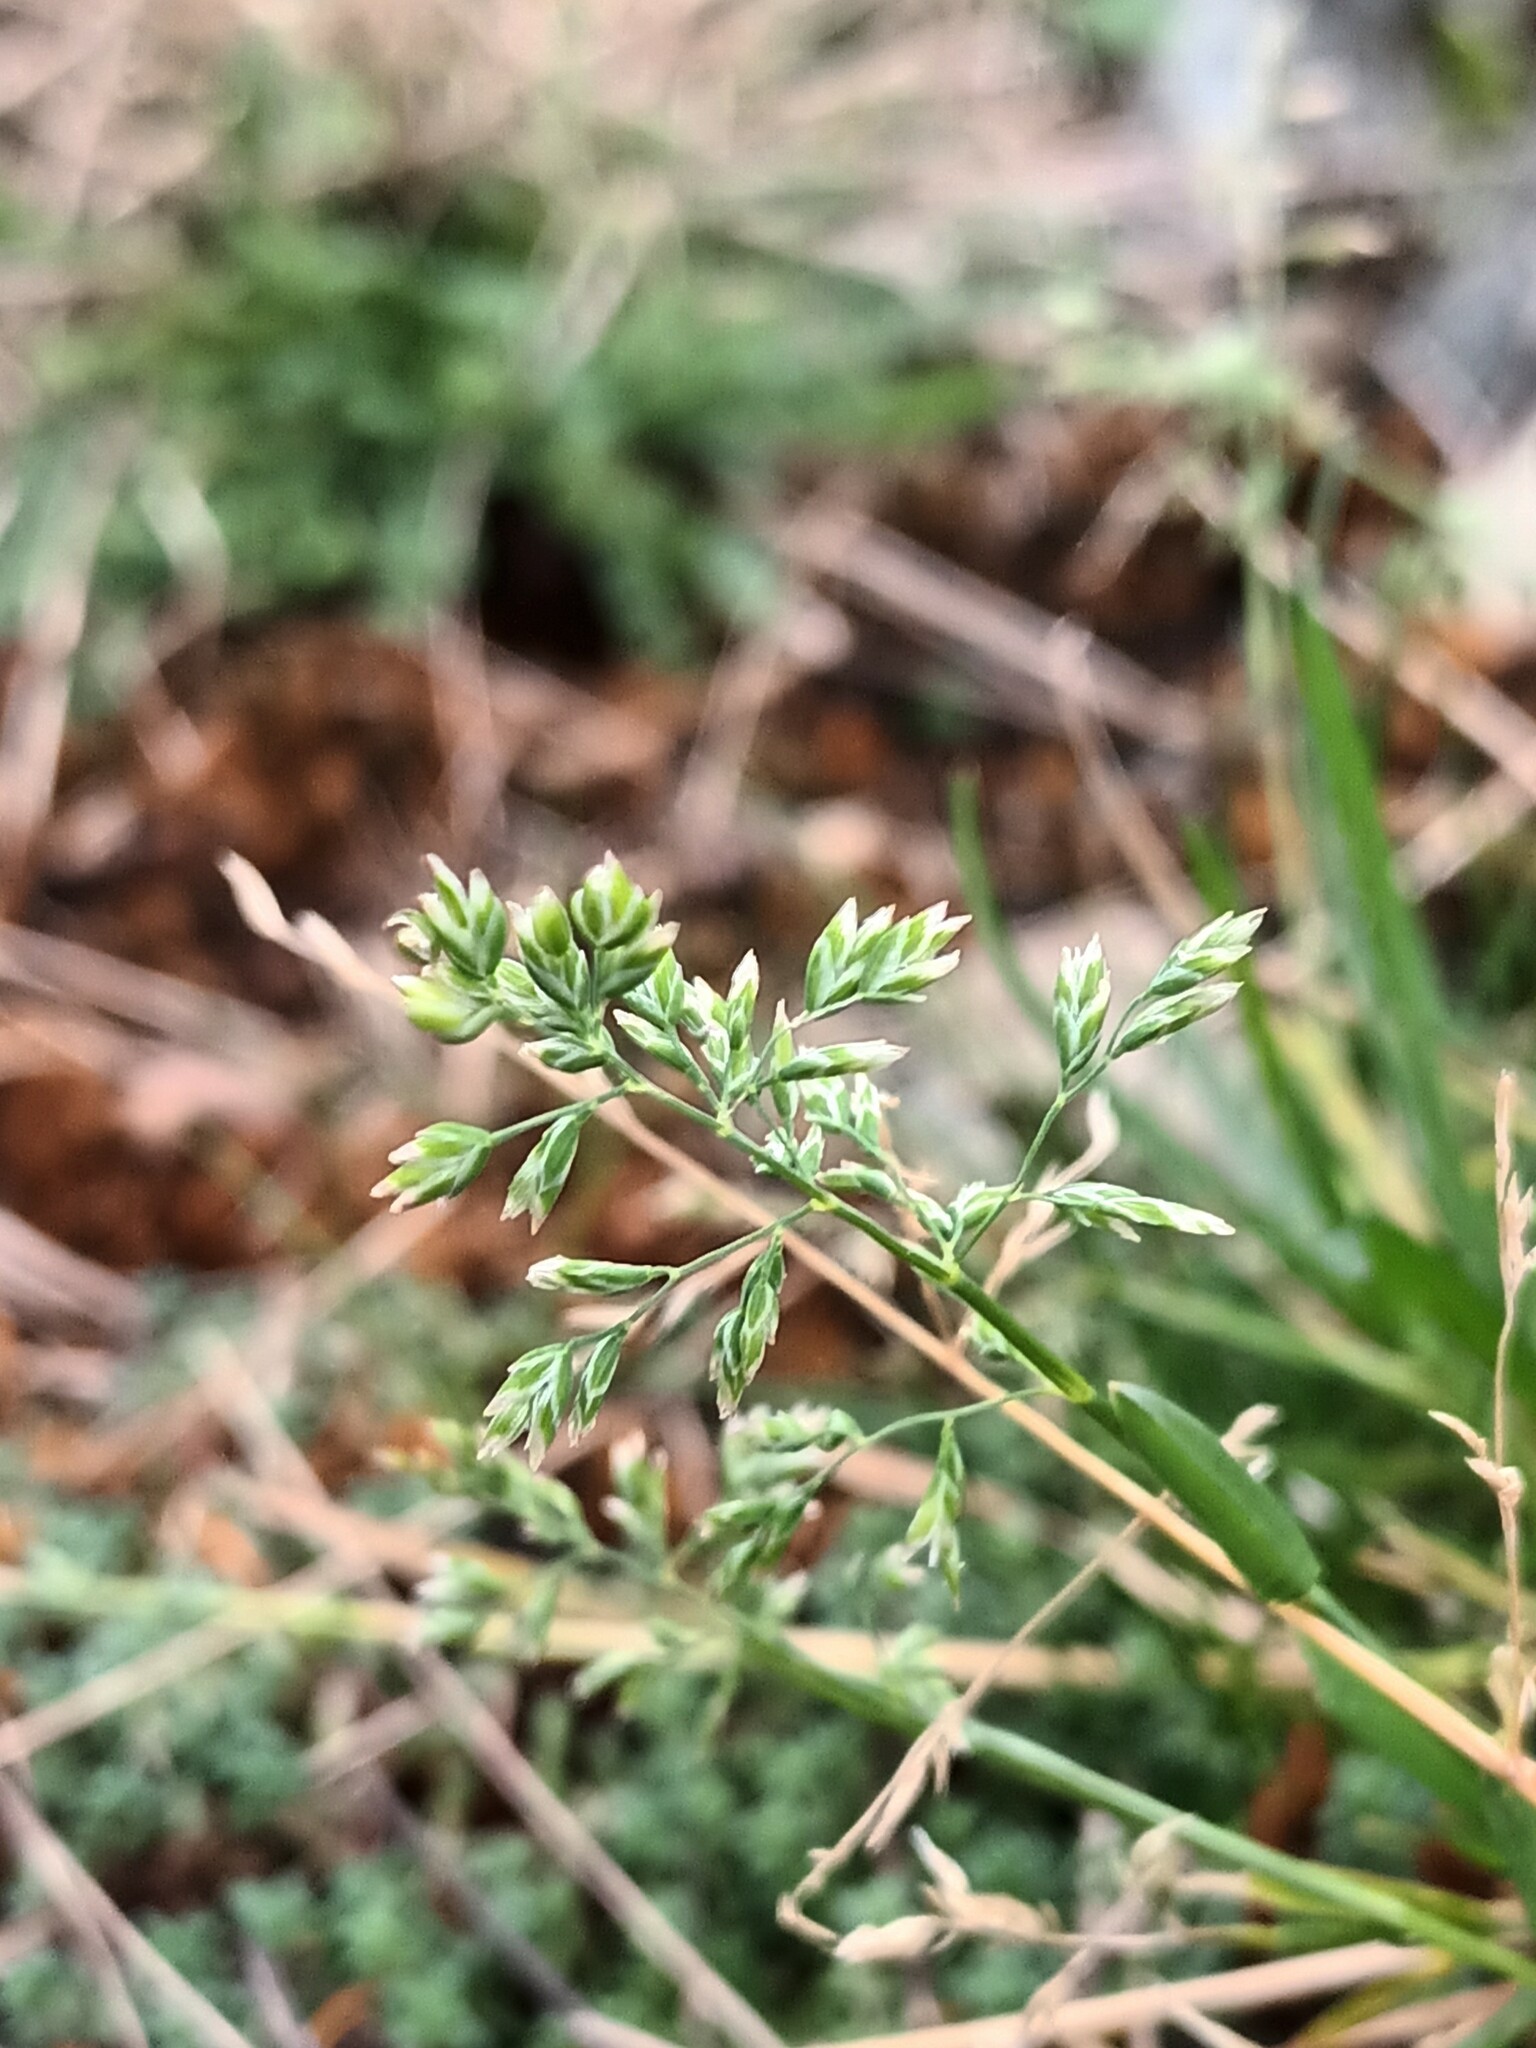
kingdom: Plantae
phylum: Tracheophyta
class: Liliopsida
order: Poales
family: Poaceae
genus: Poa
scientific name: Poa annua
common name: Annual bluegrass
